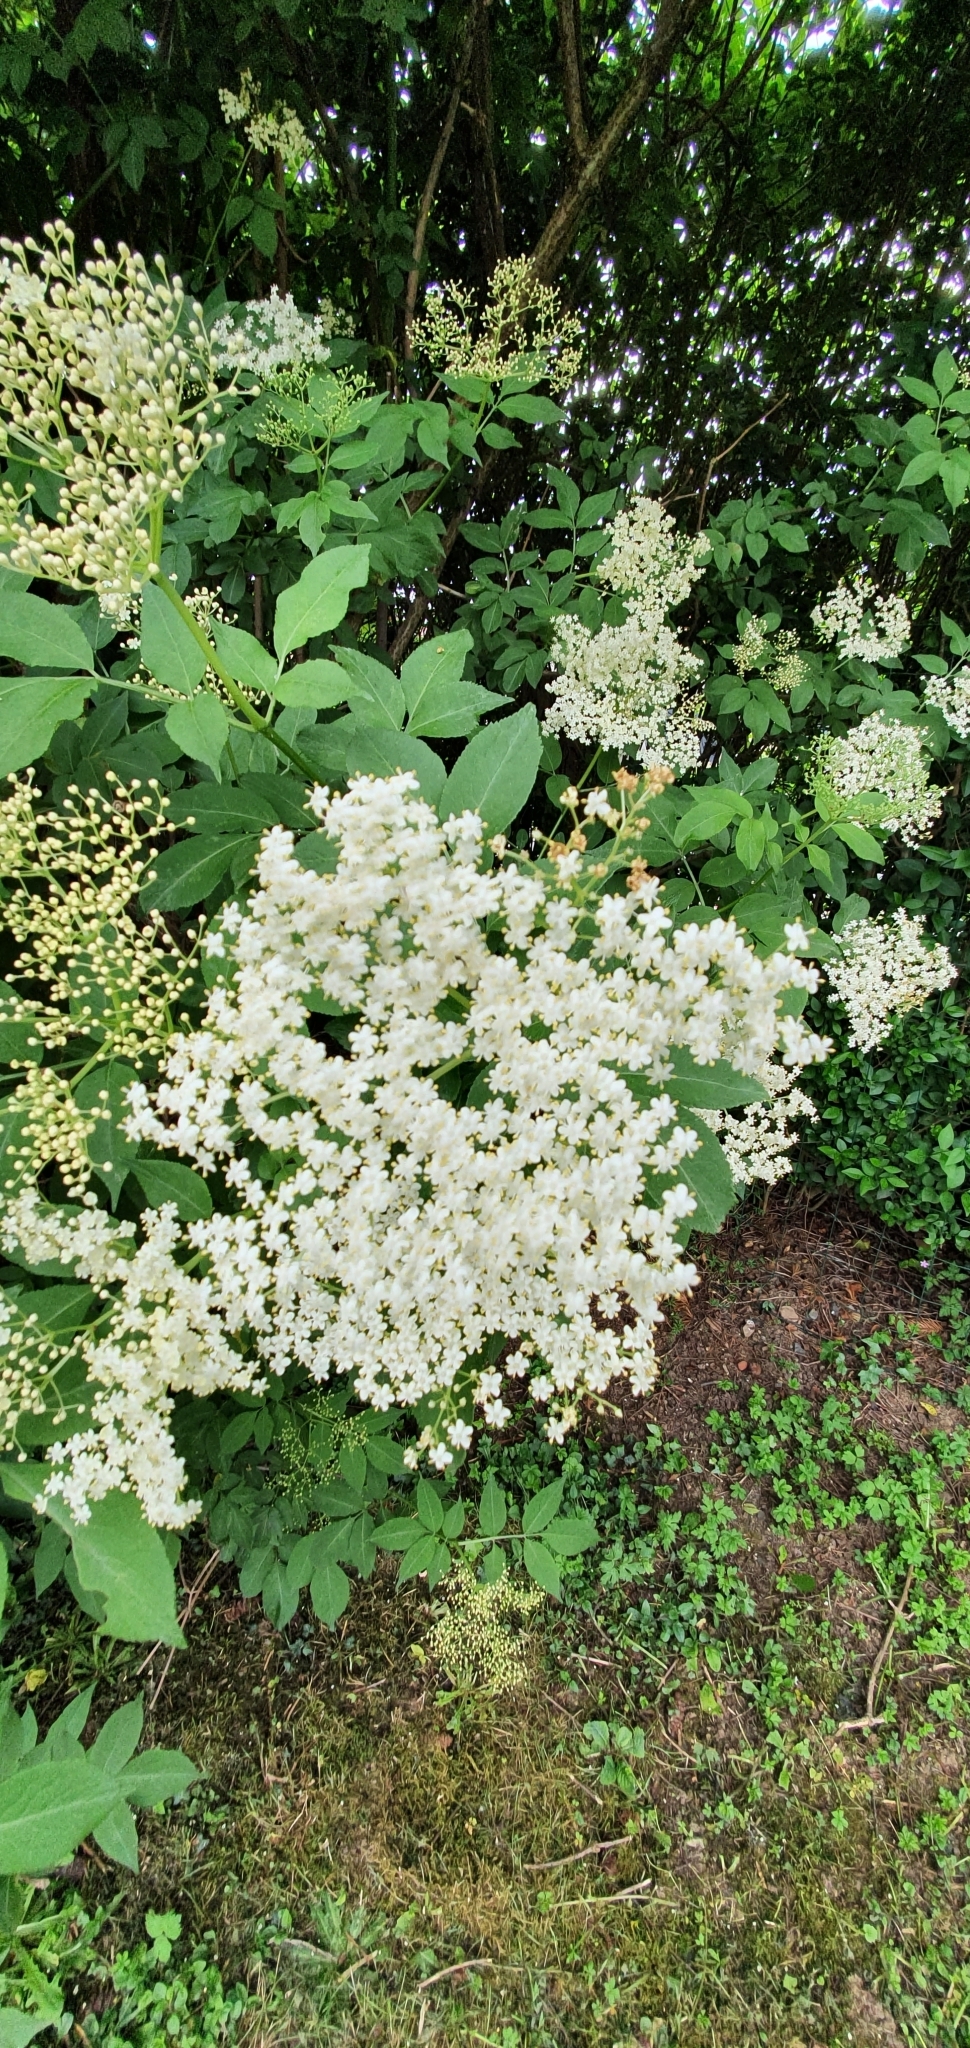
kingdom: Plantae
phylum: Tracheophyta
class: Magnoliopsida
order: Dipsacales
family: Viburnaceae
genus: Sambucus
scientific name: Sambucus nigra
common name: Elder
